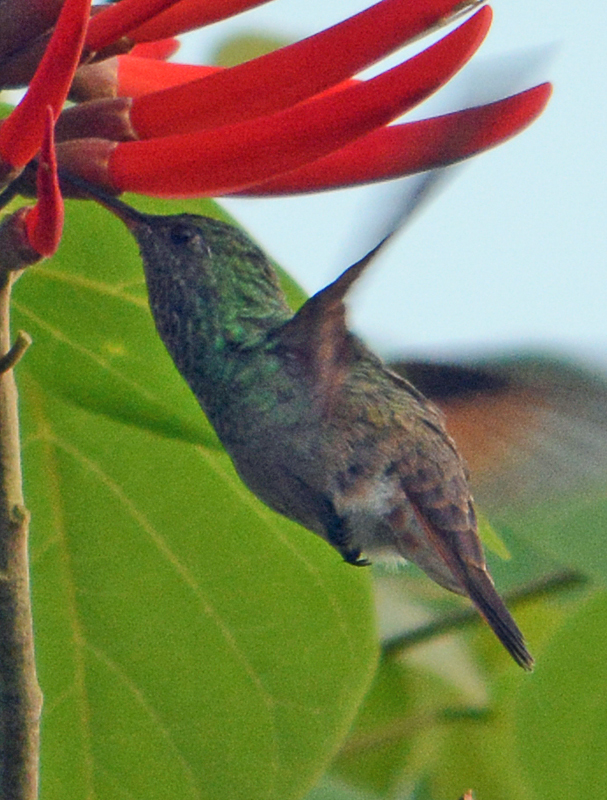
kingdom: Animalia
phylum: Chordata
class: Aves
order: Apodiformes
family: Trochilidae
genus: Saucerottia
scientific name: Saucerottia beryllina
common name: Berylline hummingbird
